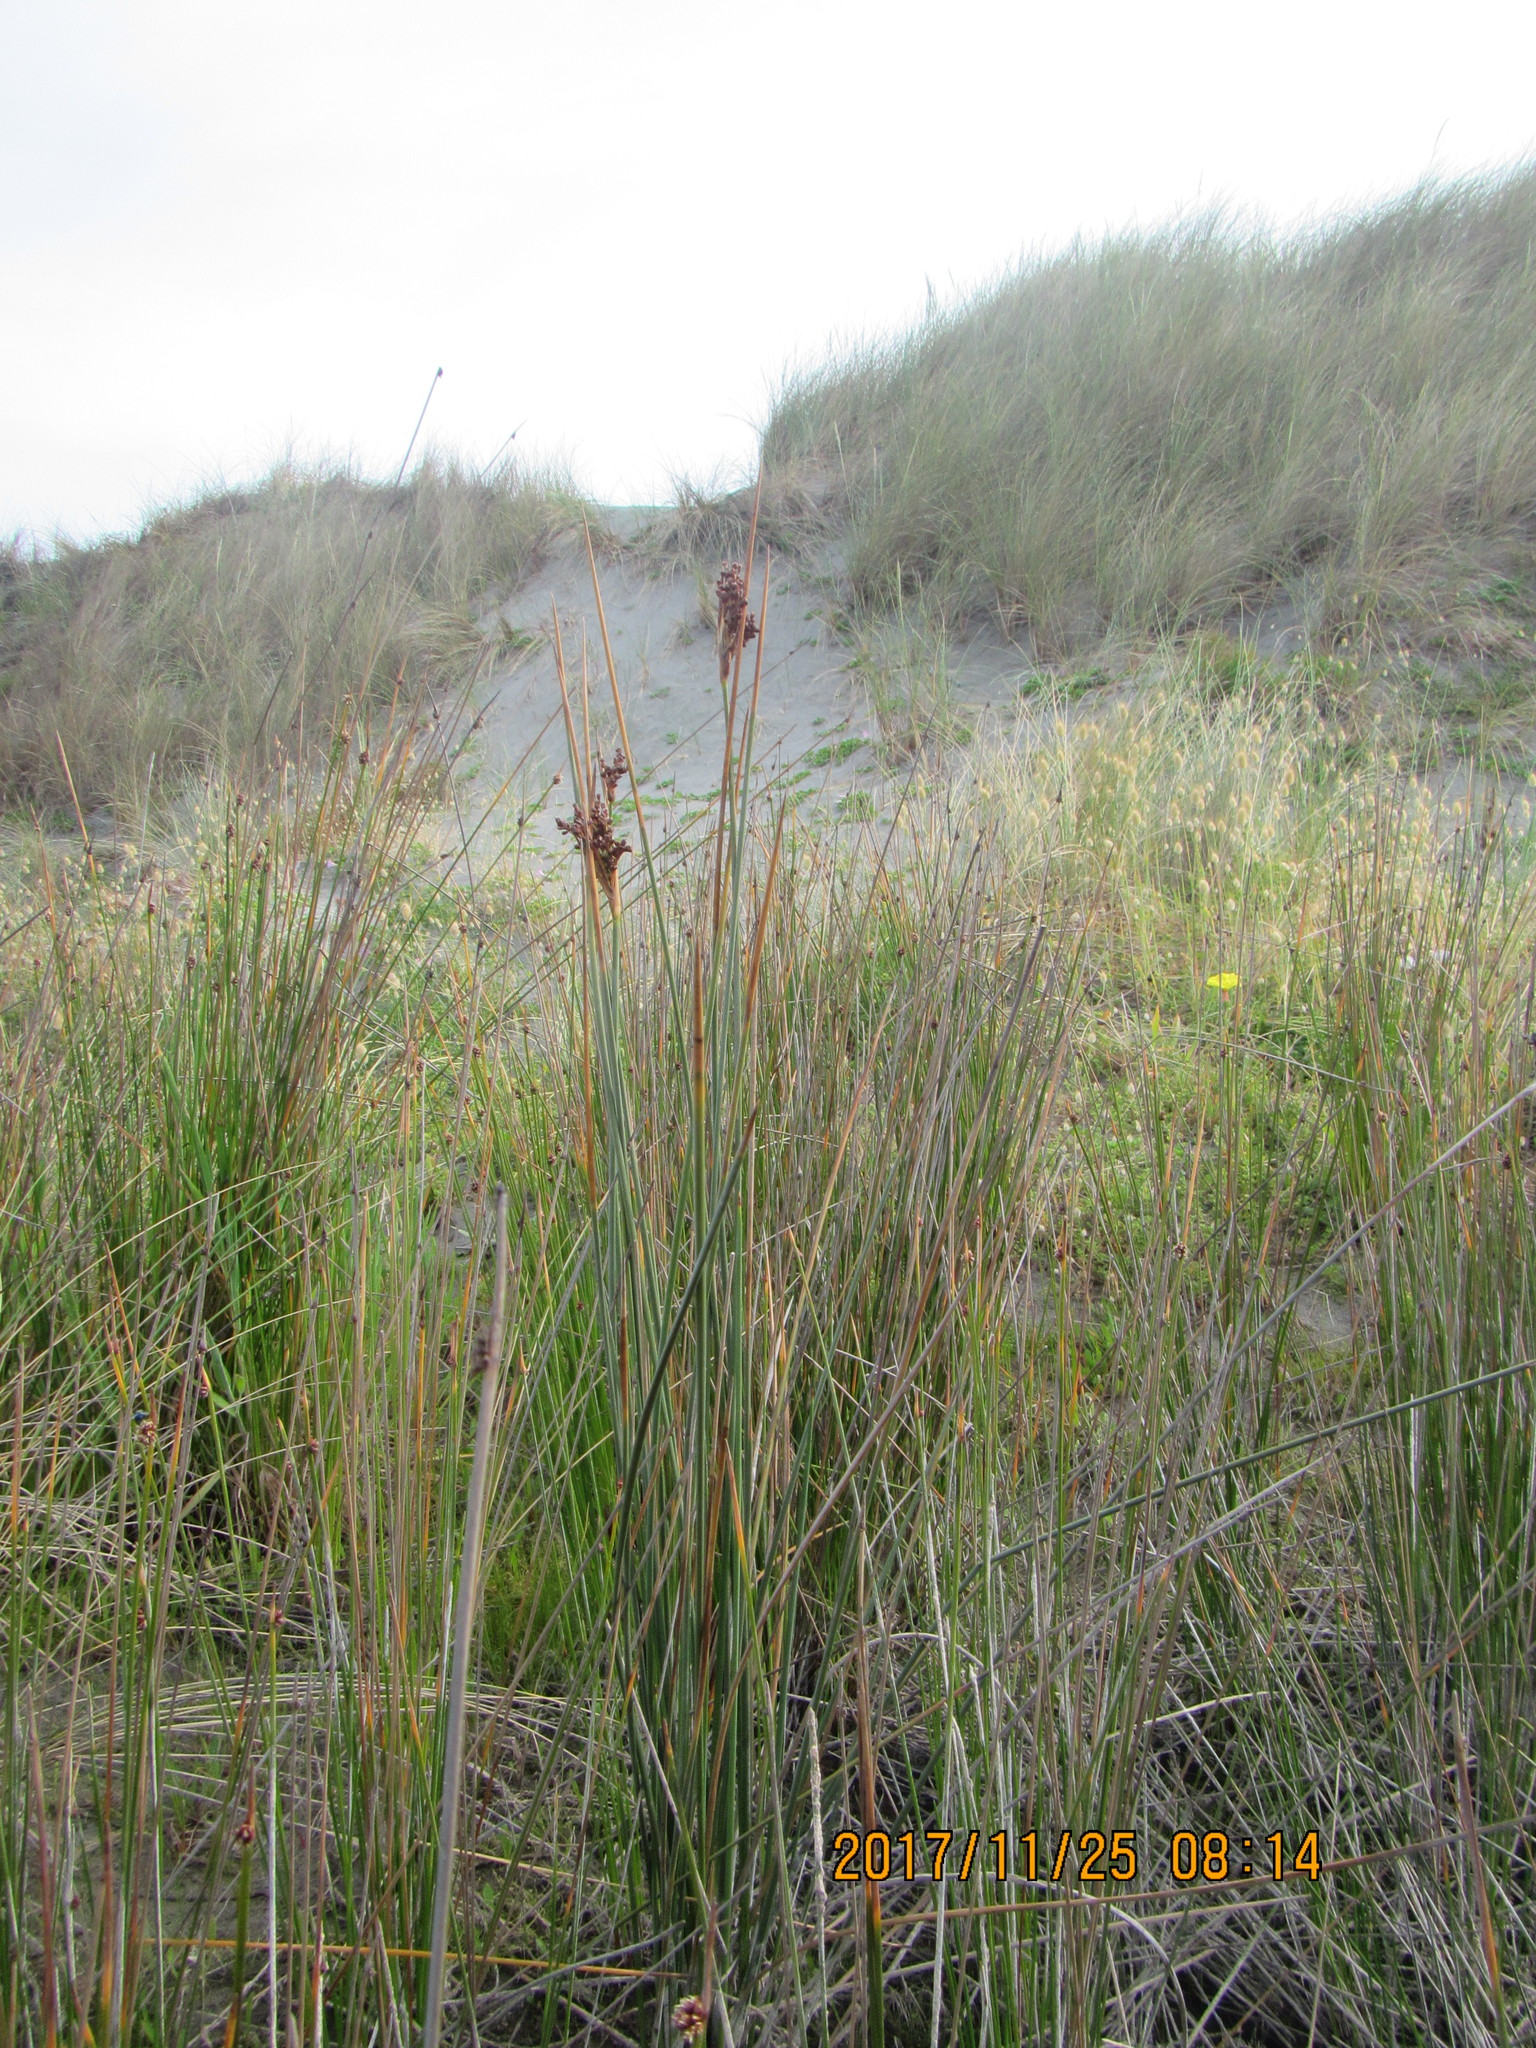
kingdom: Plantae
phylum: Tracheophyta
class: Liliopsida
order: Poales
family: Juncaceae
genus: Juncus
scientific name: Juncus acutus
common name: Sharp rush
